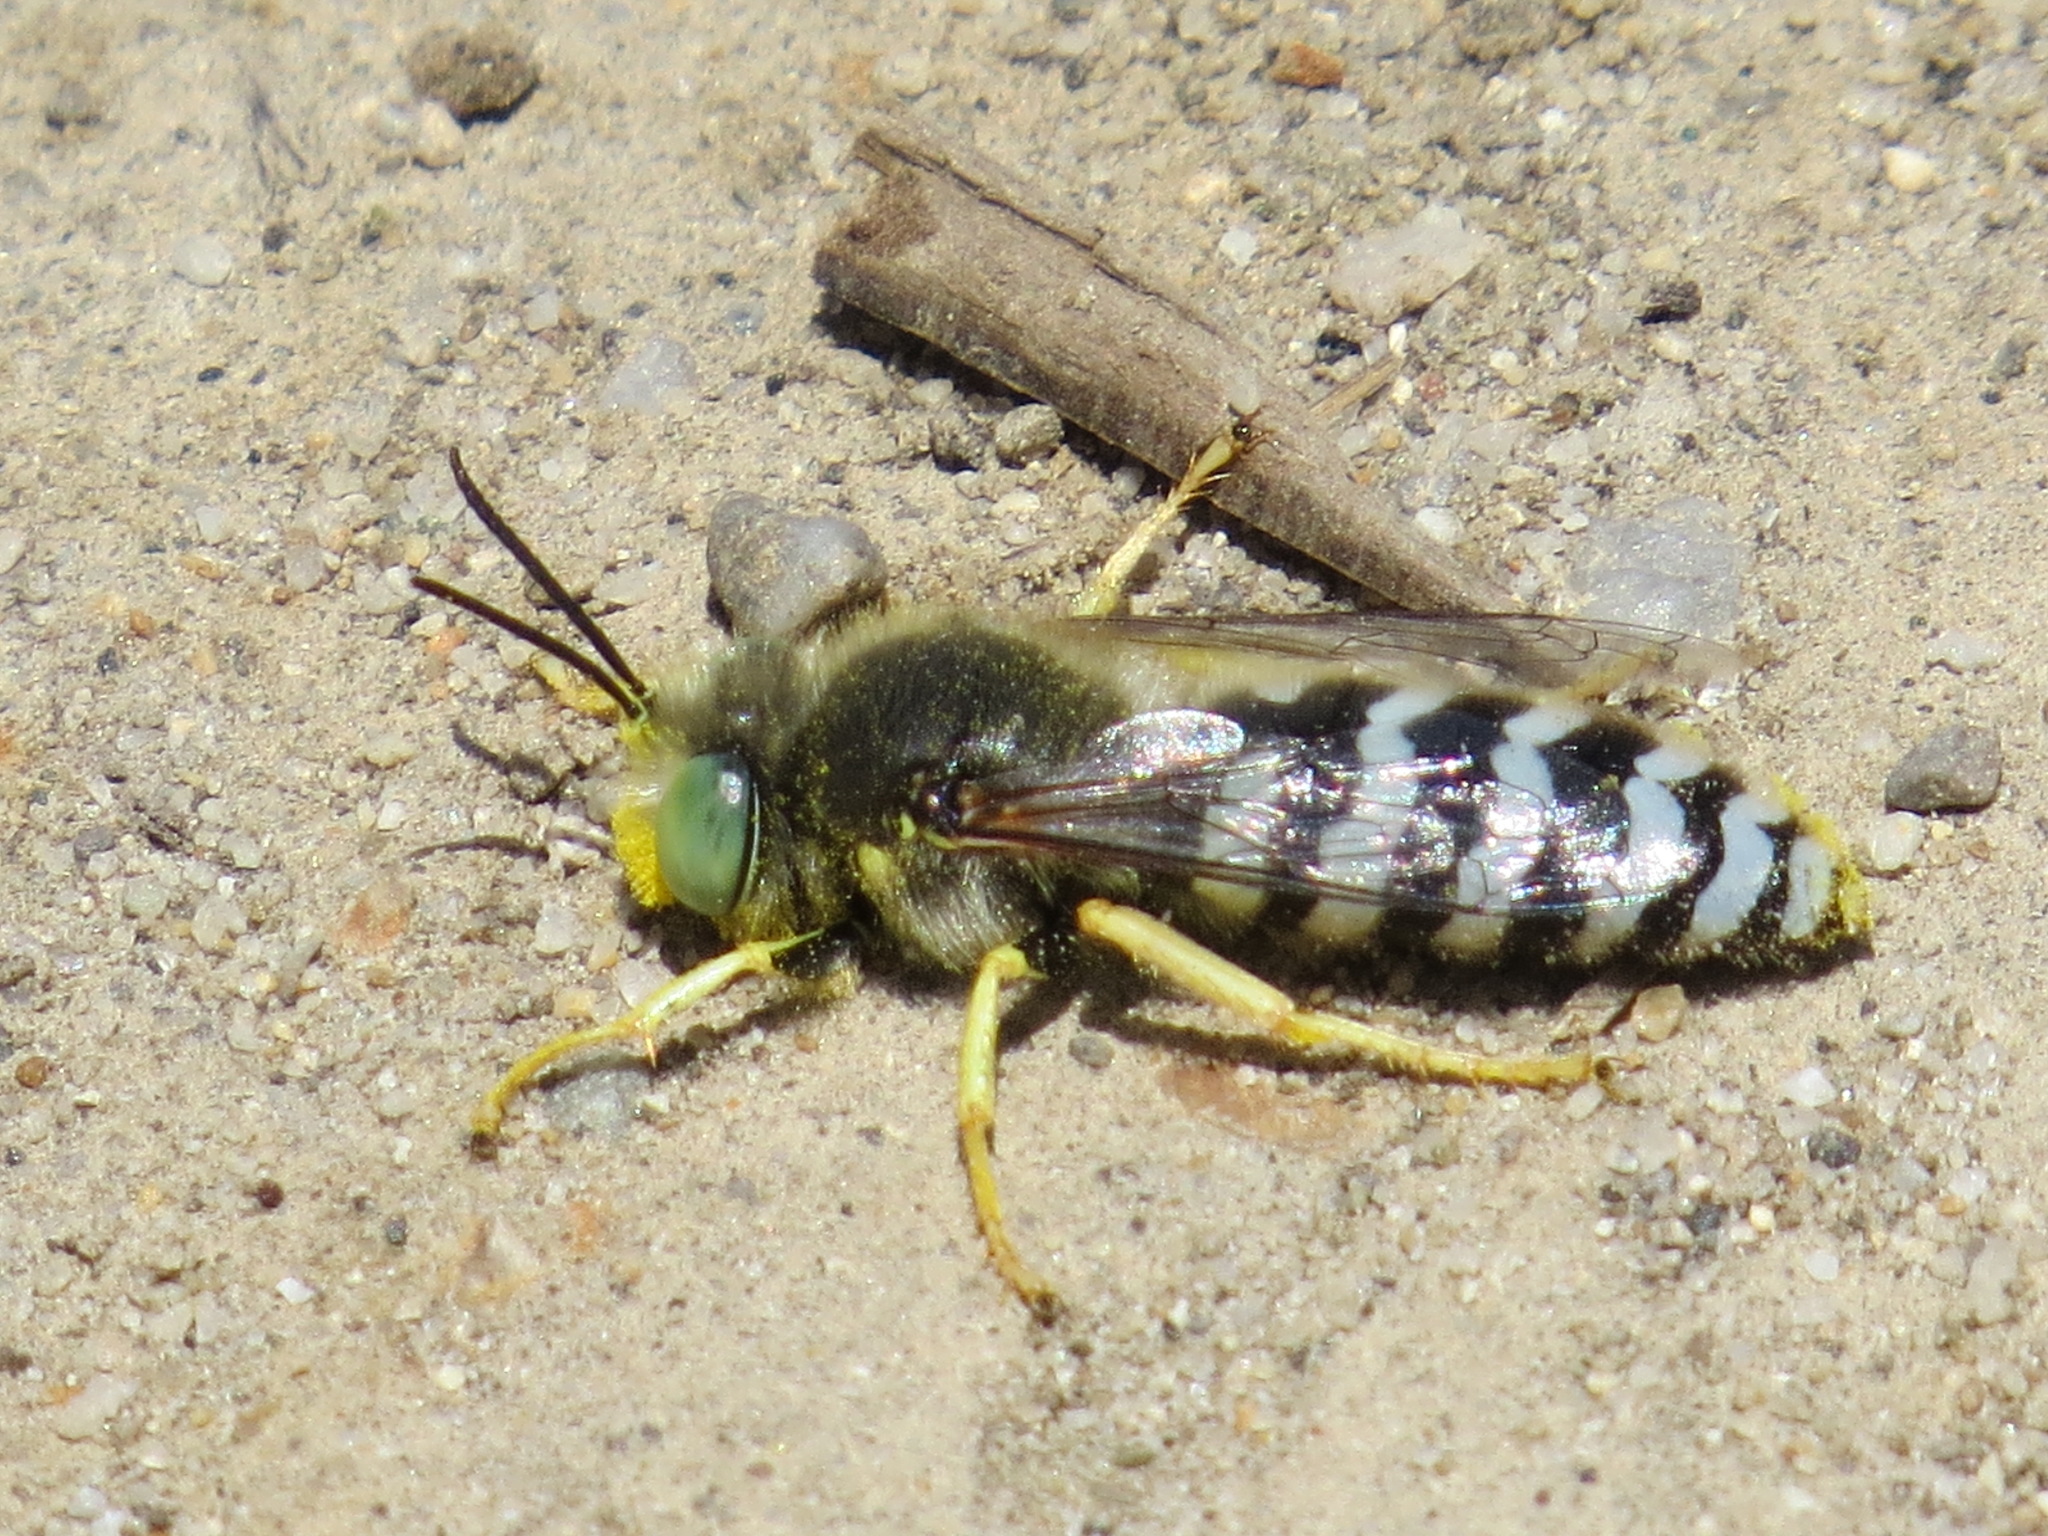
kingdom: Animalia
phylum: Arthropoda
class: Insecta
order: Hymenoptera
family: Crabronidae
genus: Bembix
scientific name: Bembix americana
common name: American sand wasp
